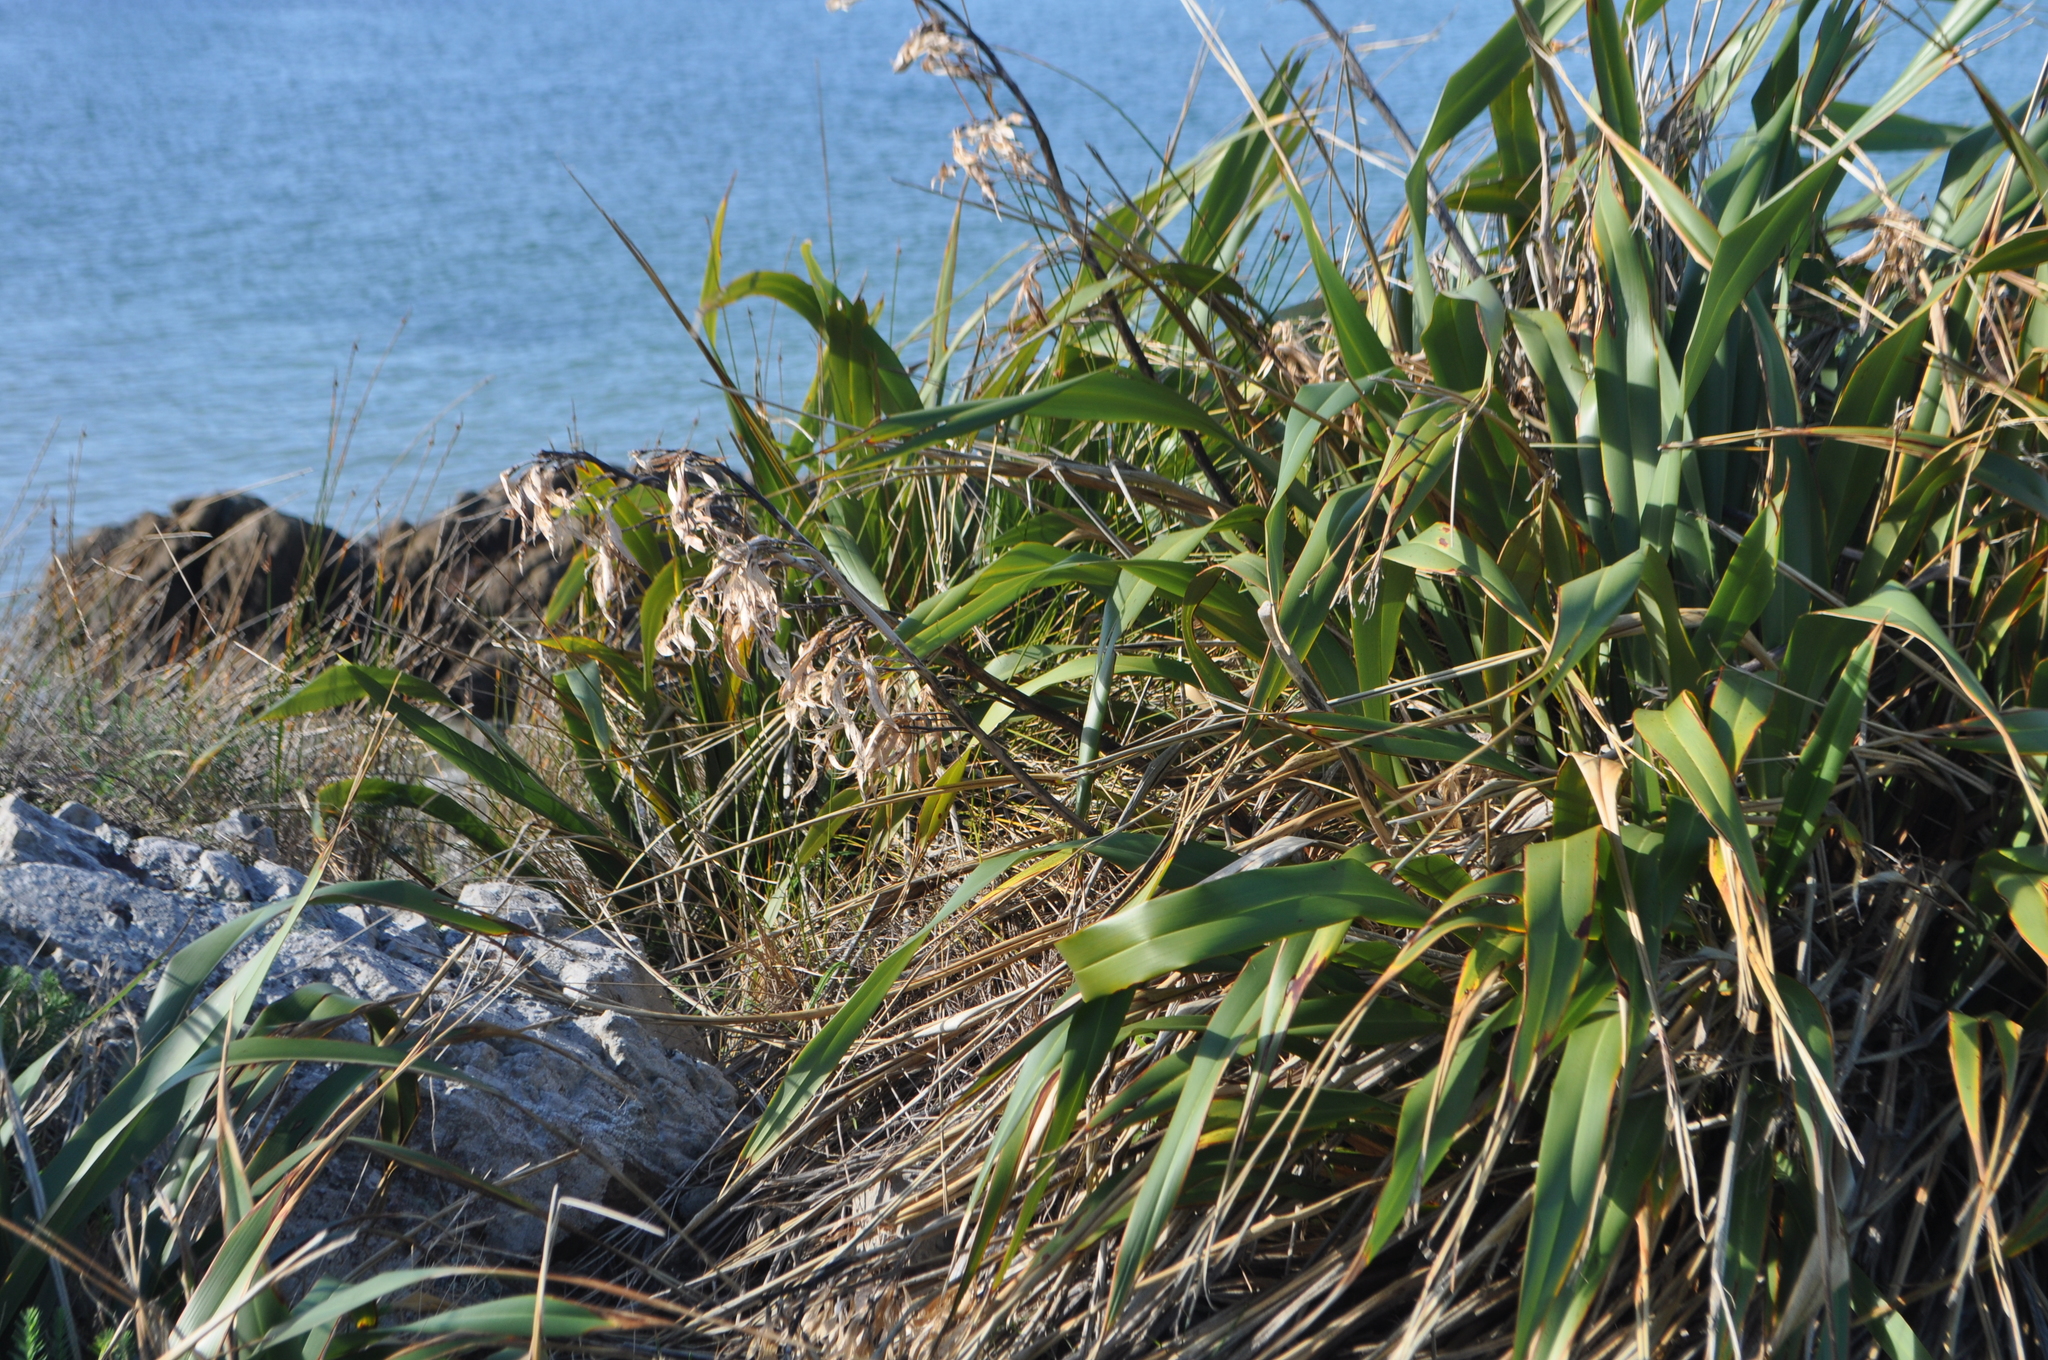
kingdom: Plantae
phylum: Tracheophyta
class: Liliopsida
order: Asparagales
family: Asphodelaceae
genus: Phormium
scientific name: Phormium colensoi
